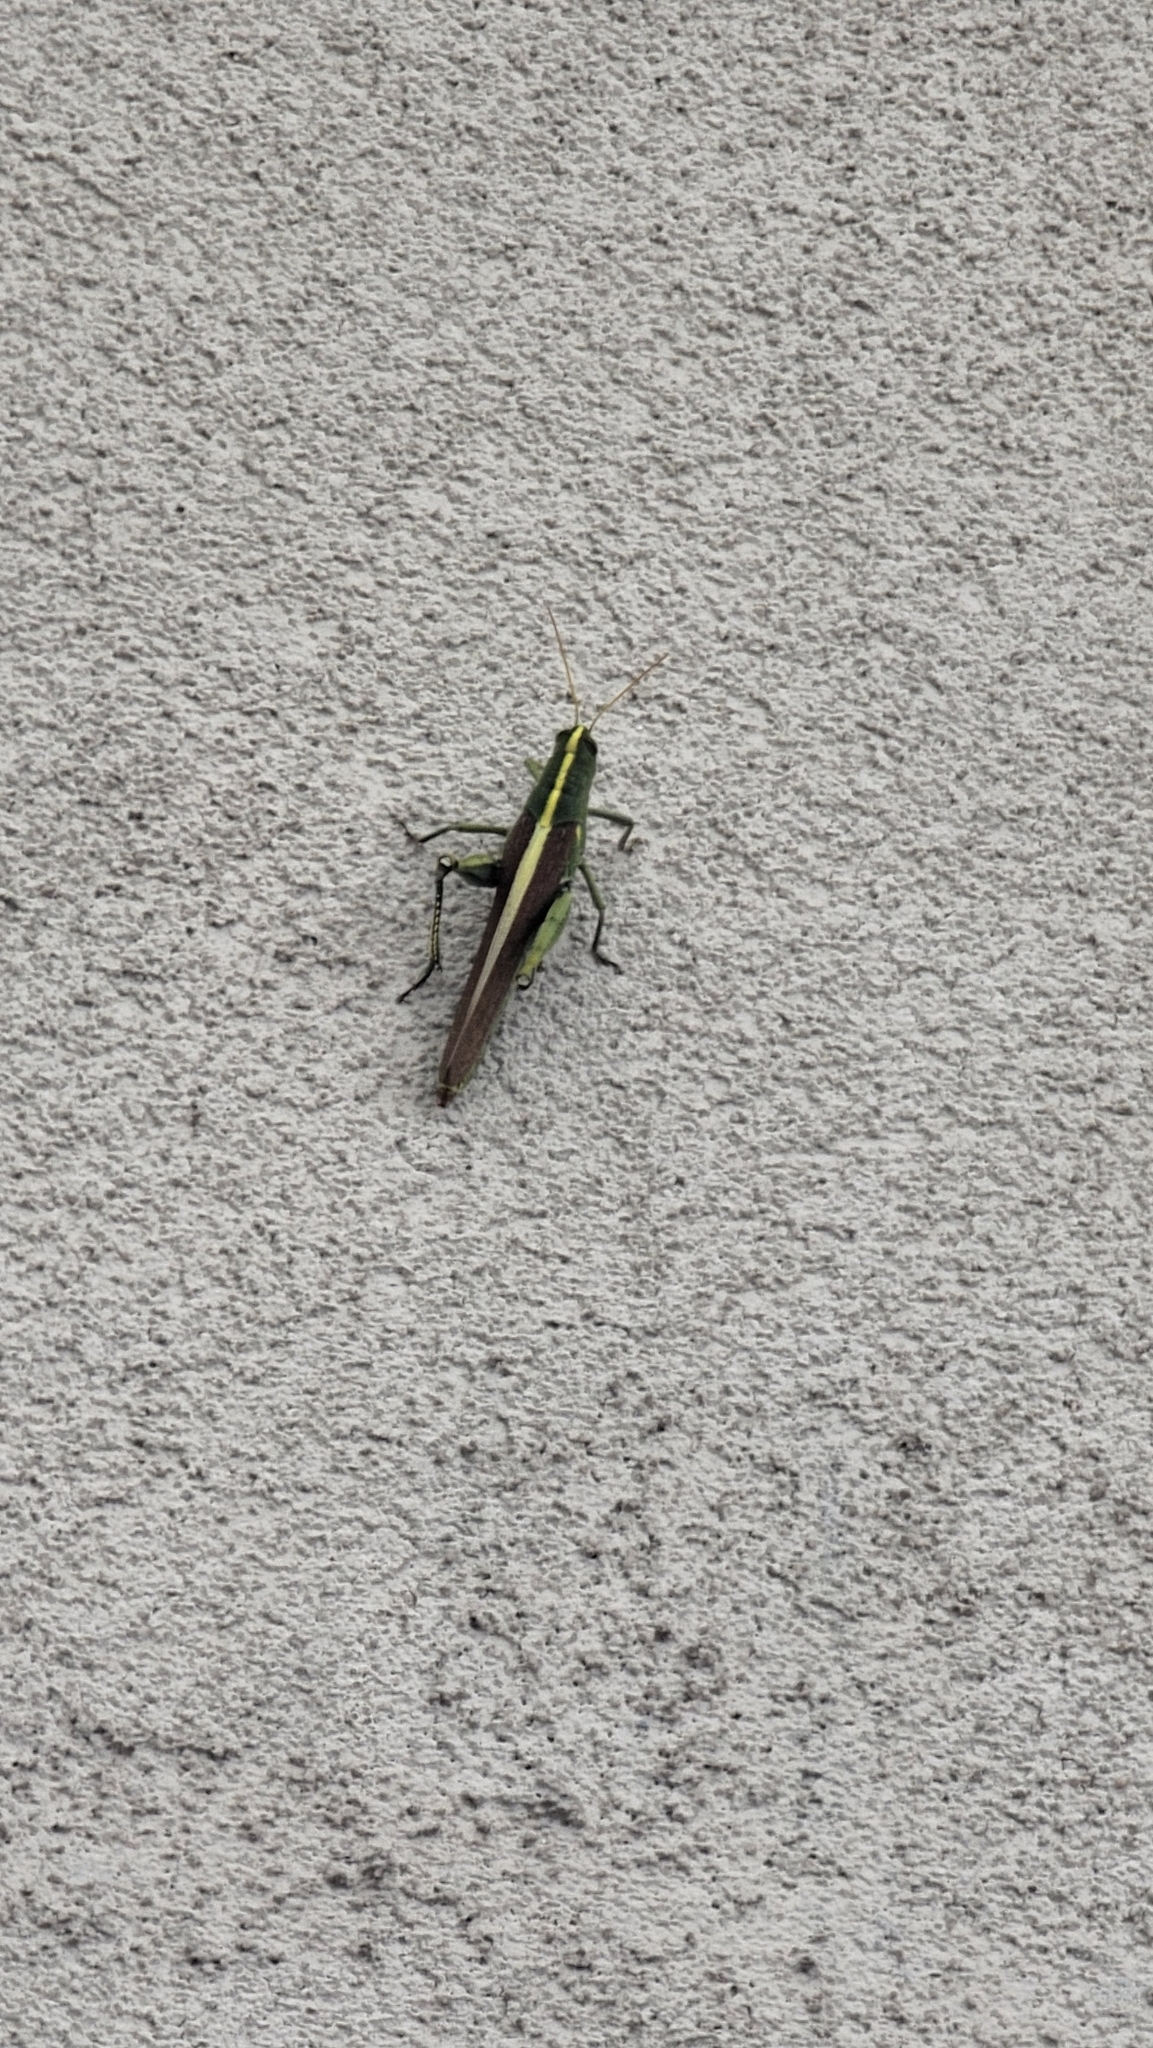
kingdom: Animalia
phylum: Arthropoda
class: Insecta
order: Orthoptera
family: Acrididae
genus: Schistocerca
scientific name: Schistocerca obscura
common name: Obscure bird grasshopper
